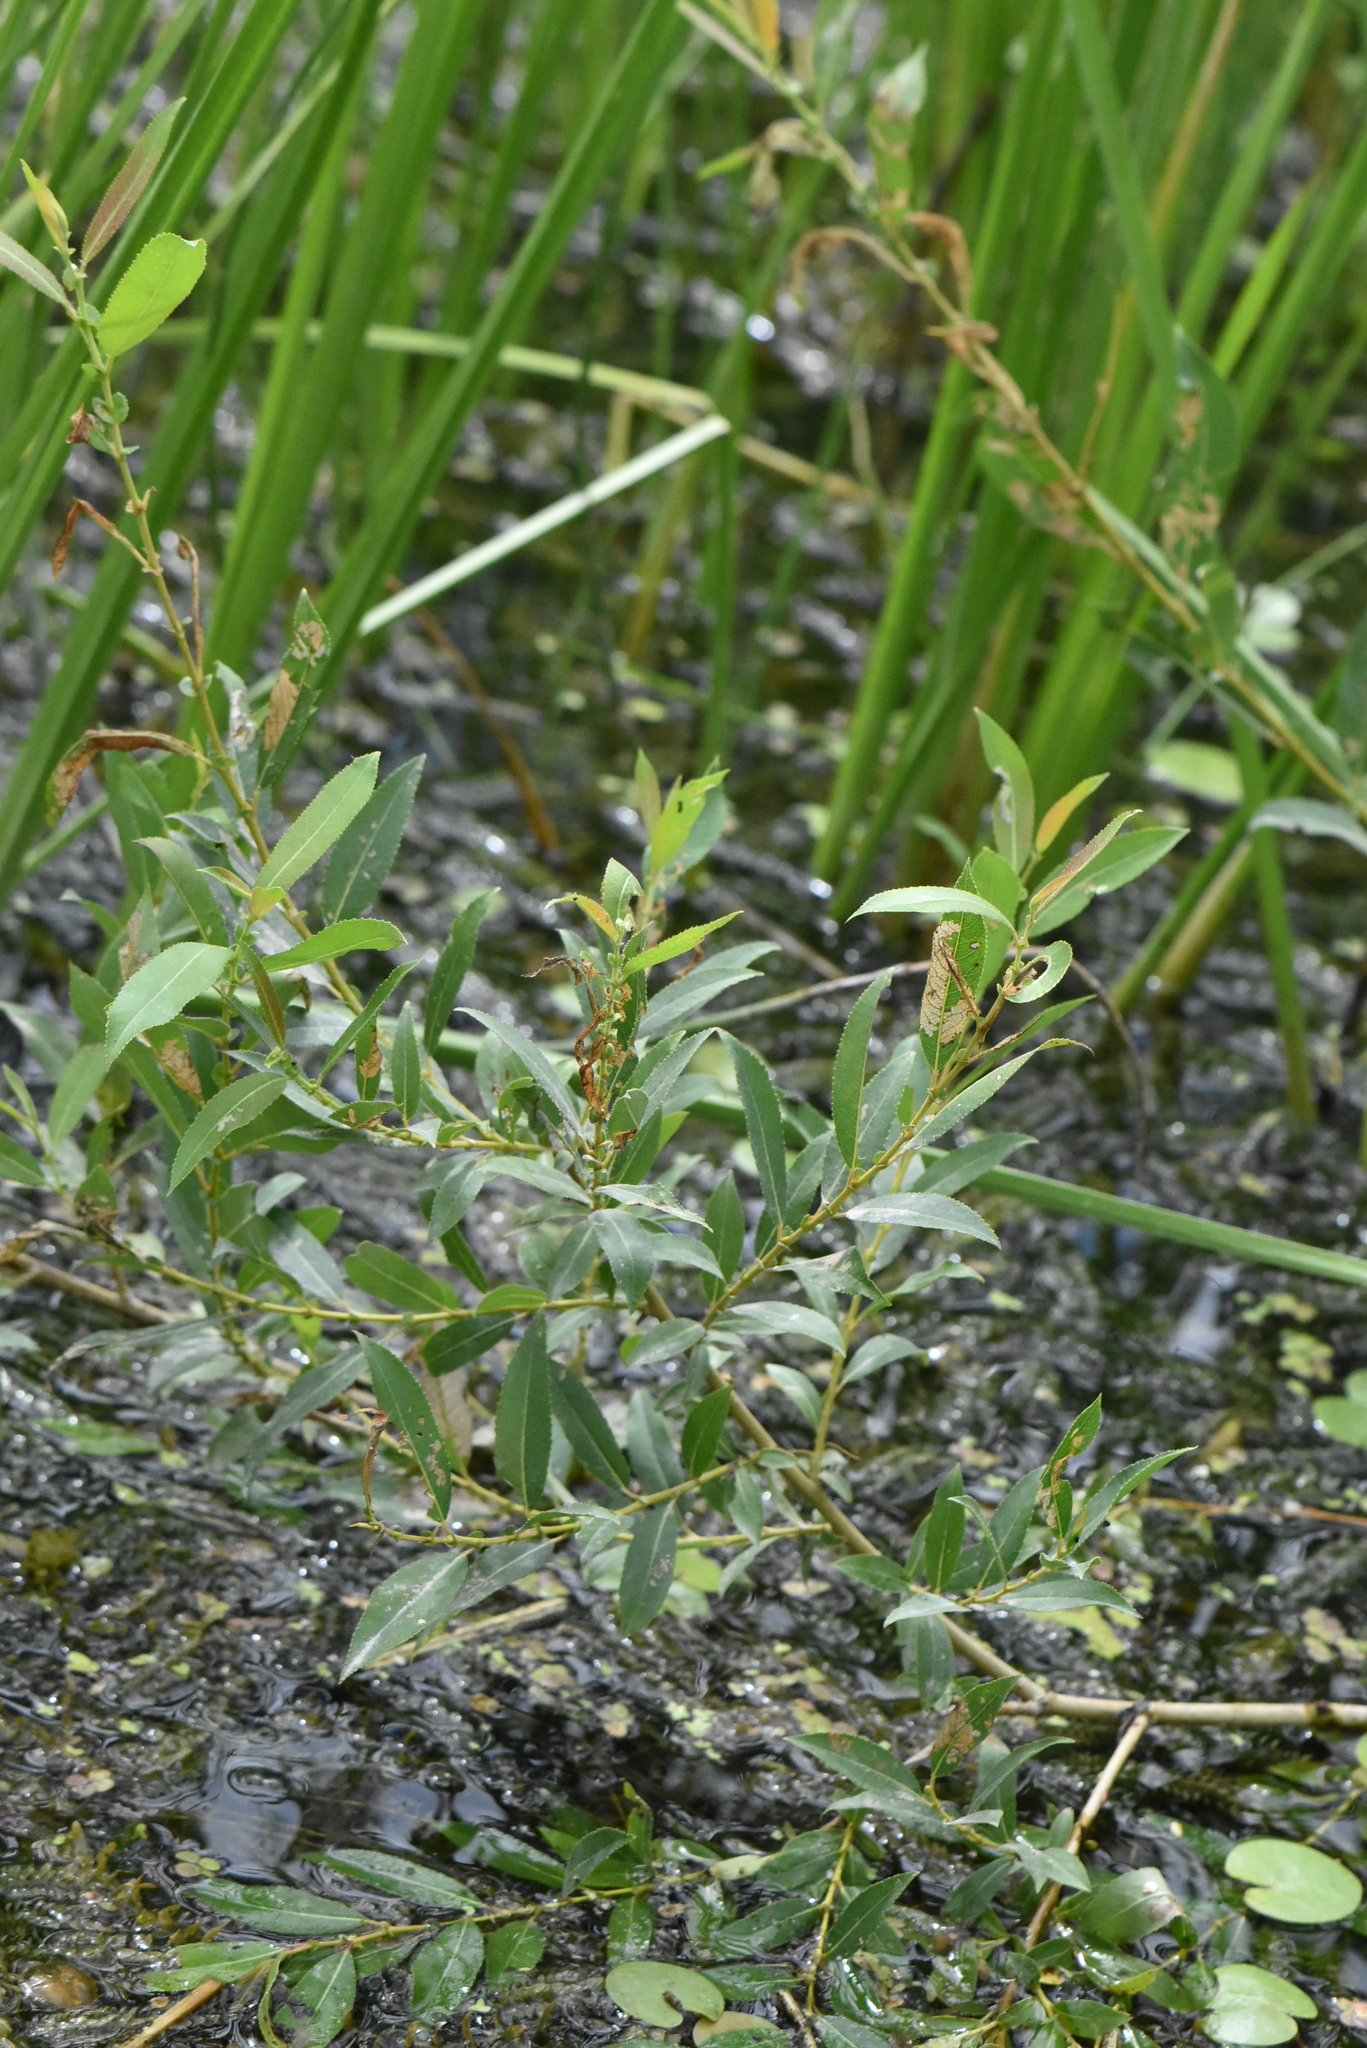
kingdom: Plantae
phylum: Tracheophyta
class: Magnoliopsida
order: Malpighiales
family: Salicaceae
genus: Salix
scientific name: Salix triandra
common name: Almond willow
